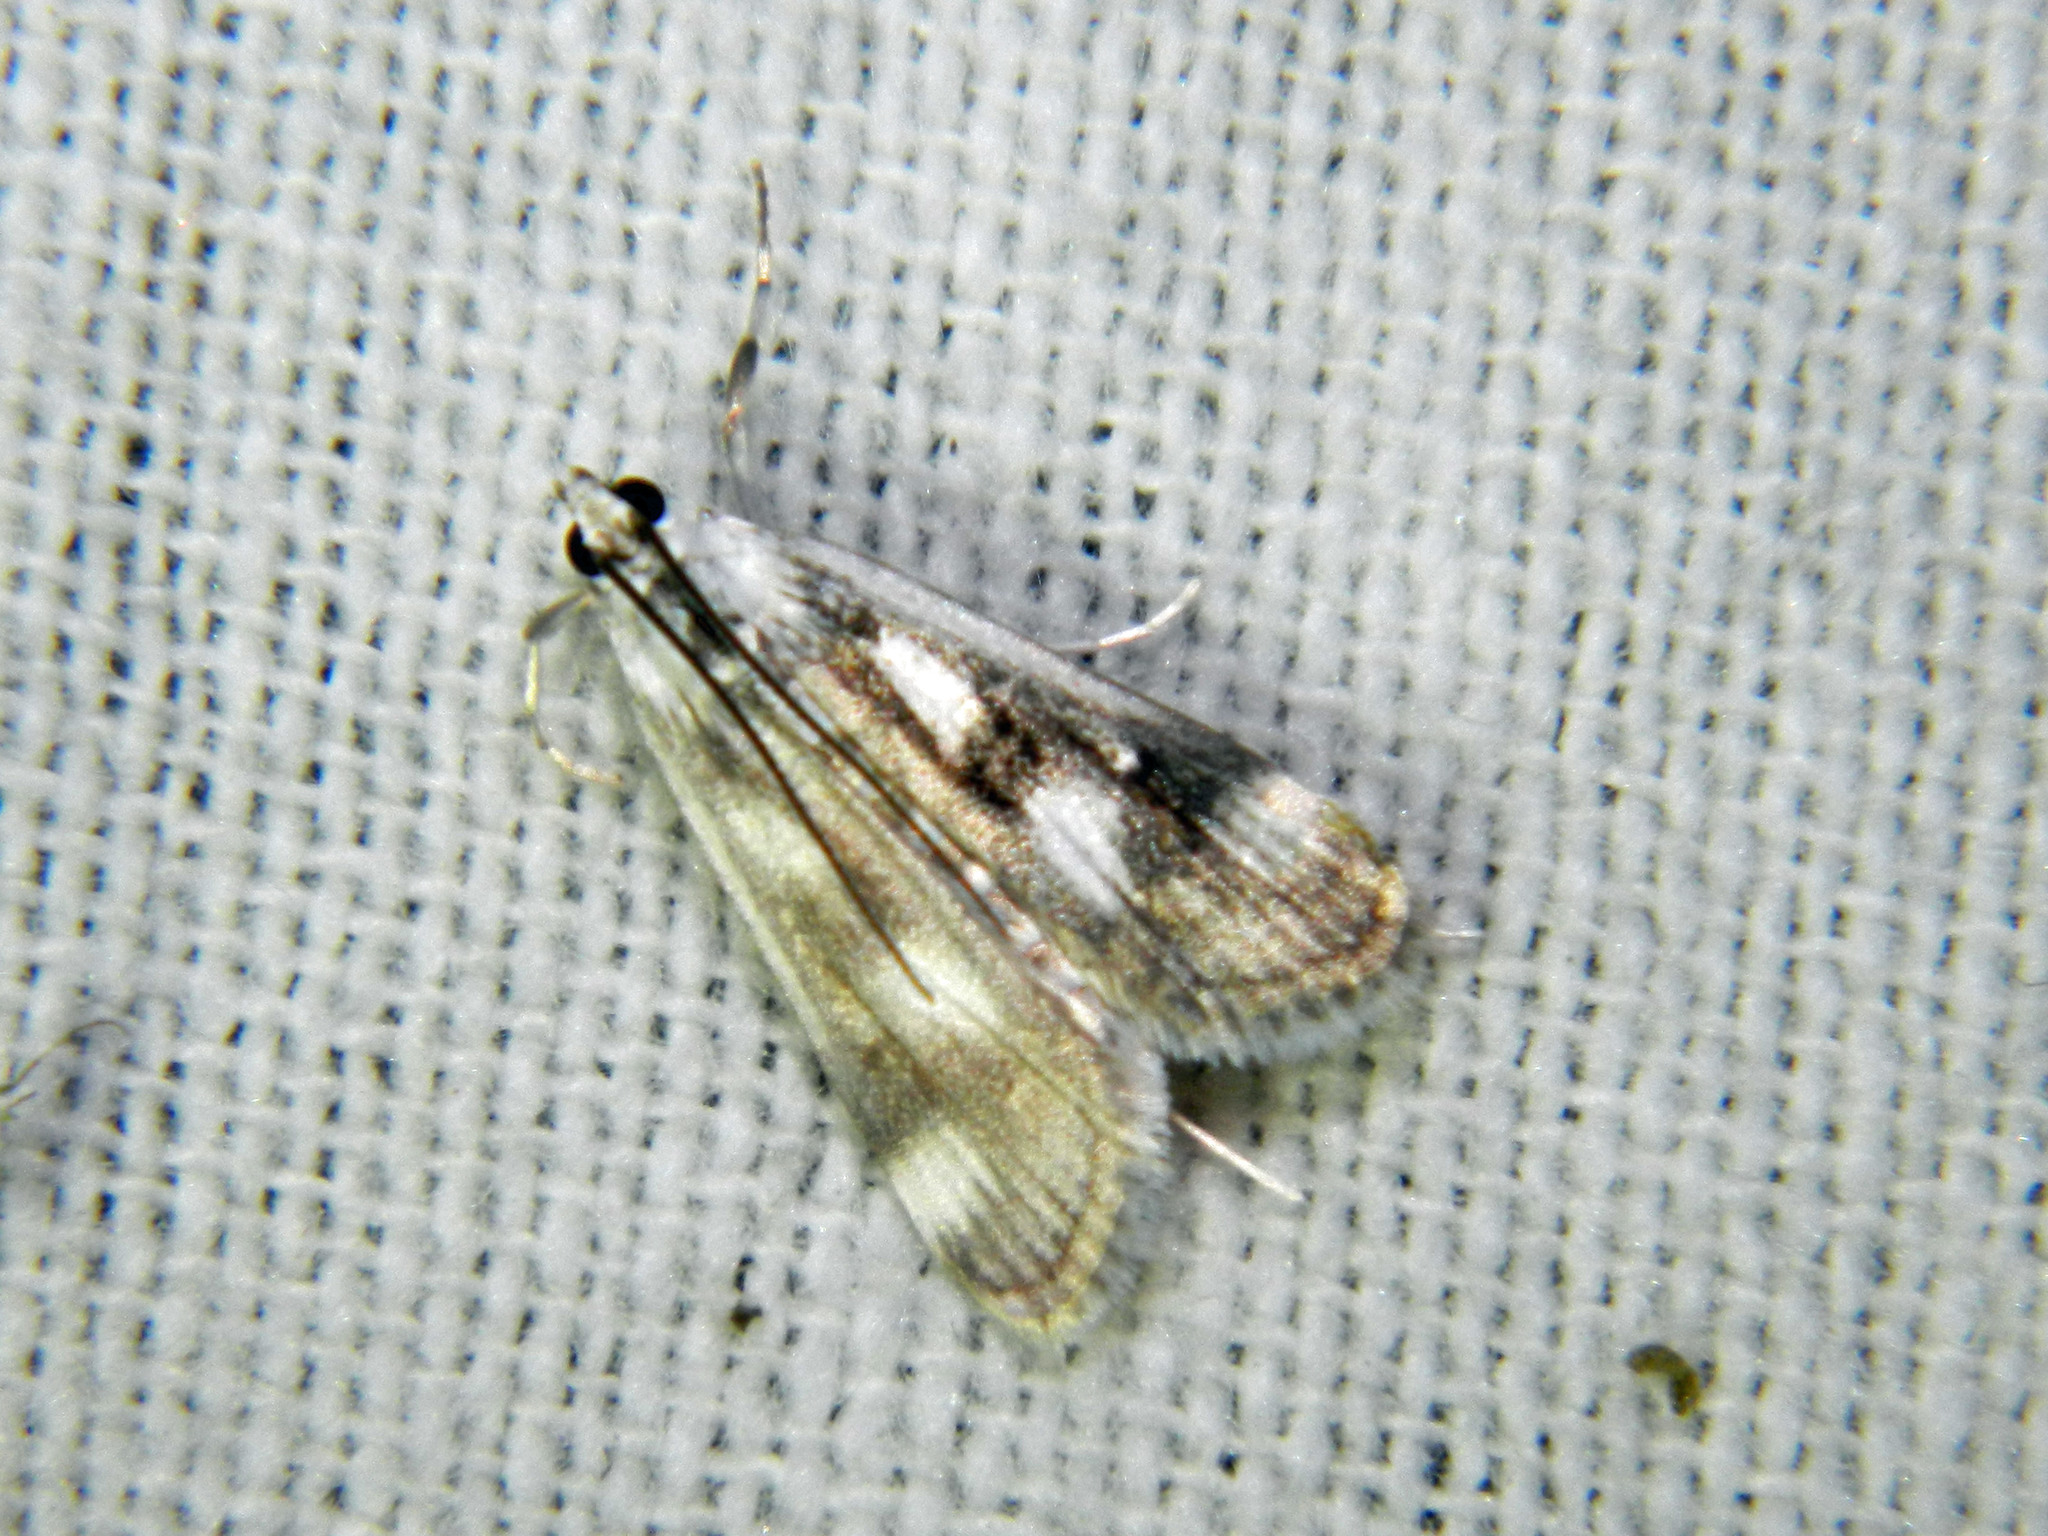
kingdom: Animalia
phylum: Arthropoda
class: Insecta
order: Lepidoptera
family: Crambidae
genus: Parapoynx
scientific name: Parapoynx maculalis
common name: Polymorphic pondweed moth
